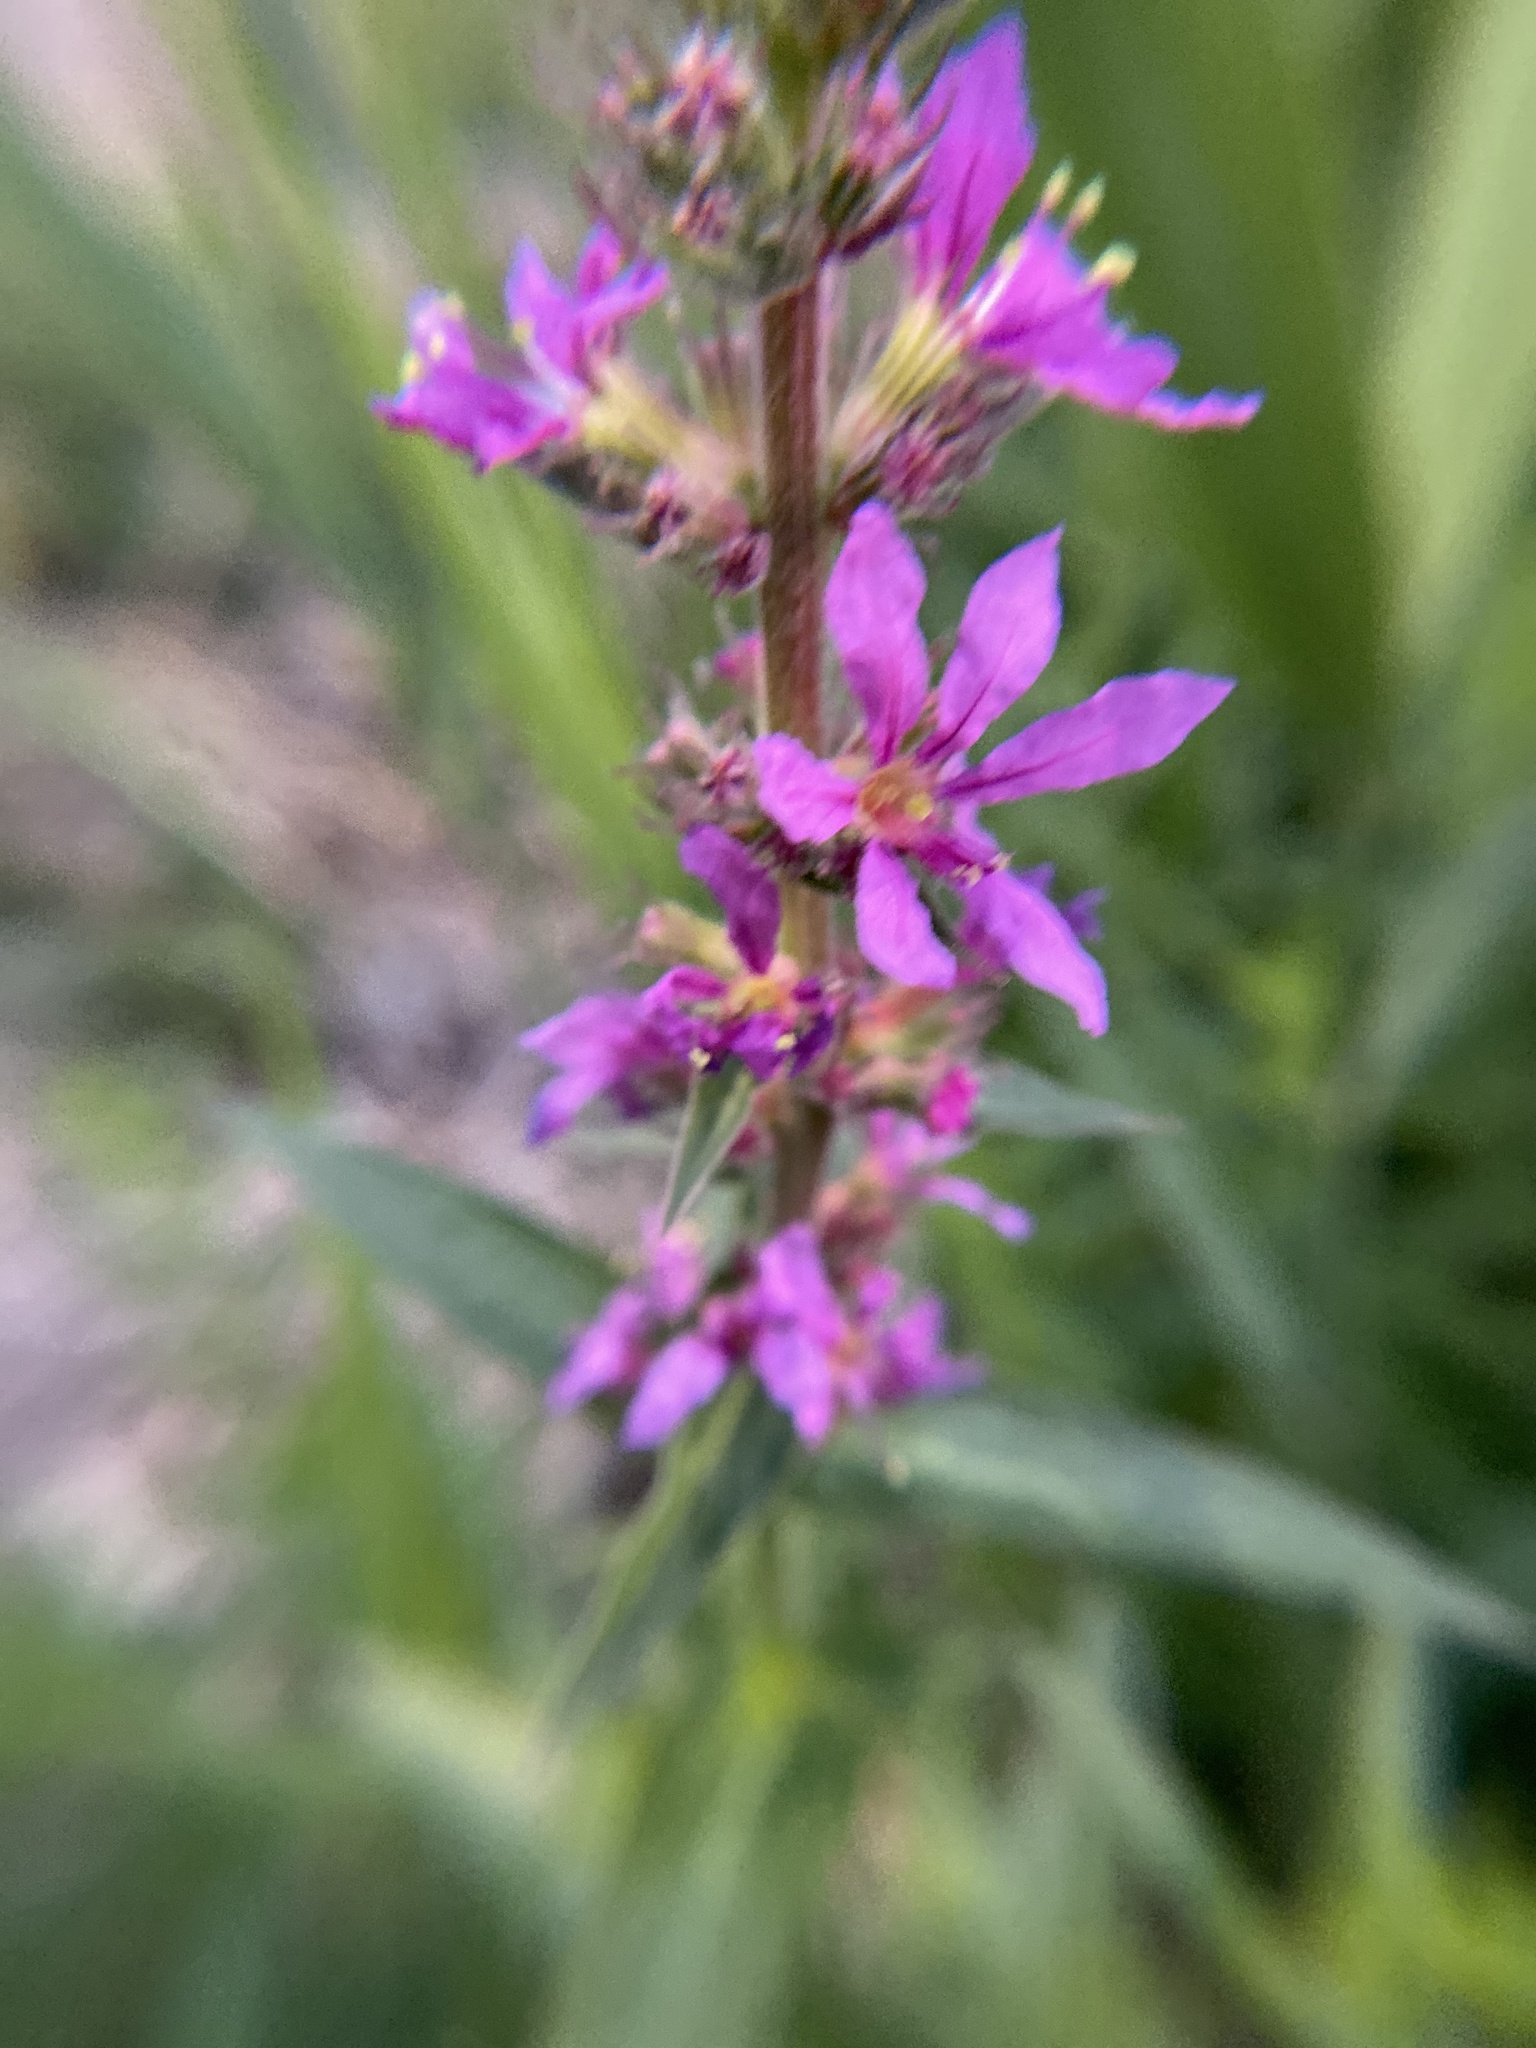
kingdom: Plantae
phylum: Tracheophyta
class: Magnoliopsida
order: Myrtales
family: Lythraceae
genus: Lythrum
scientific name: Lythrum salicaria
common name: Purple loosestrife
